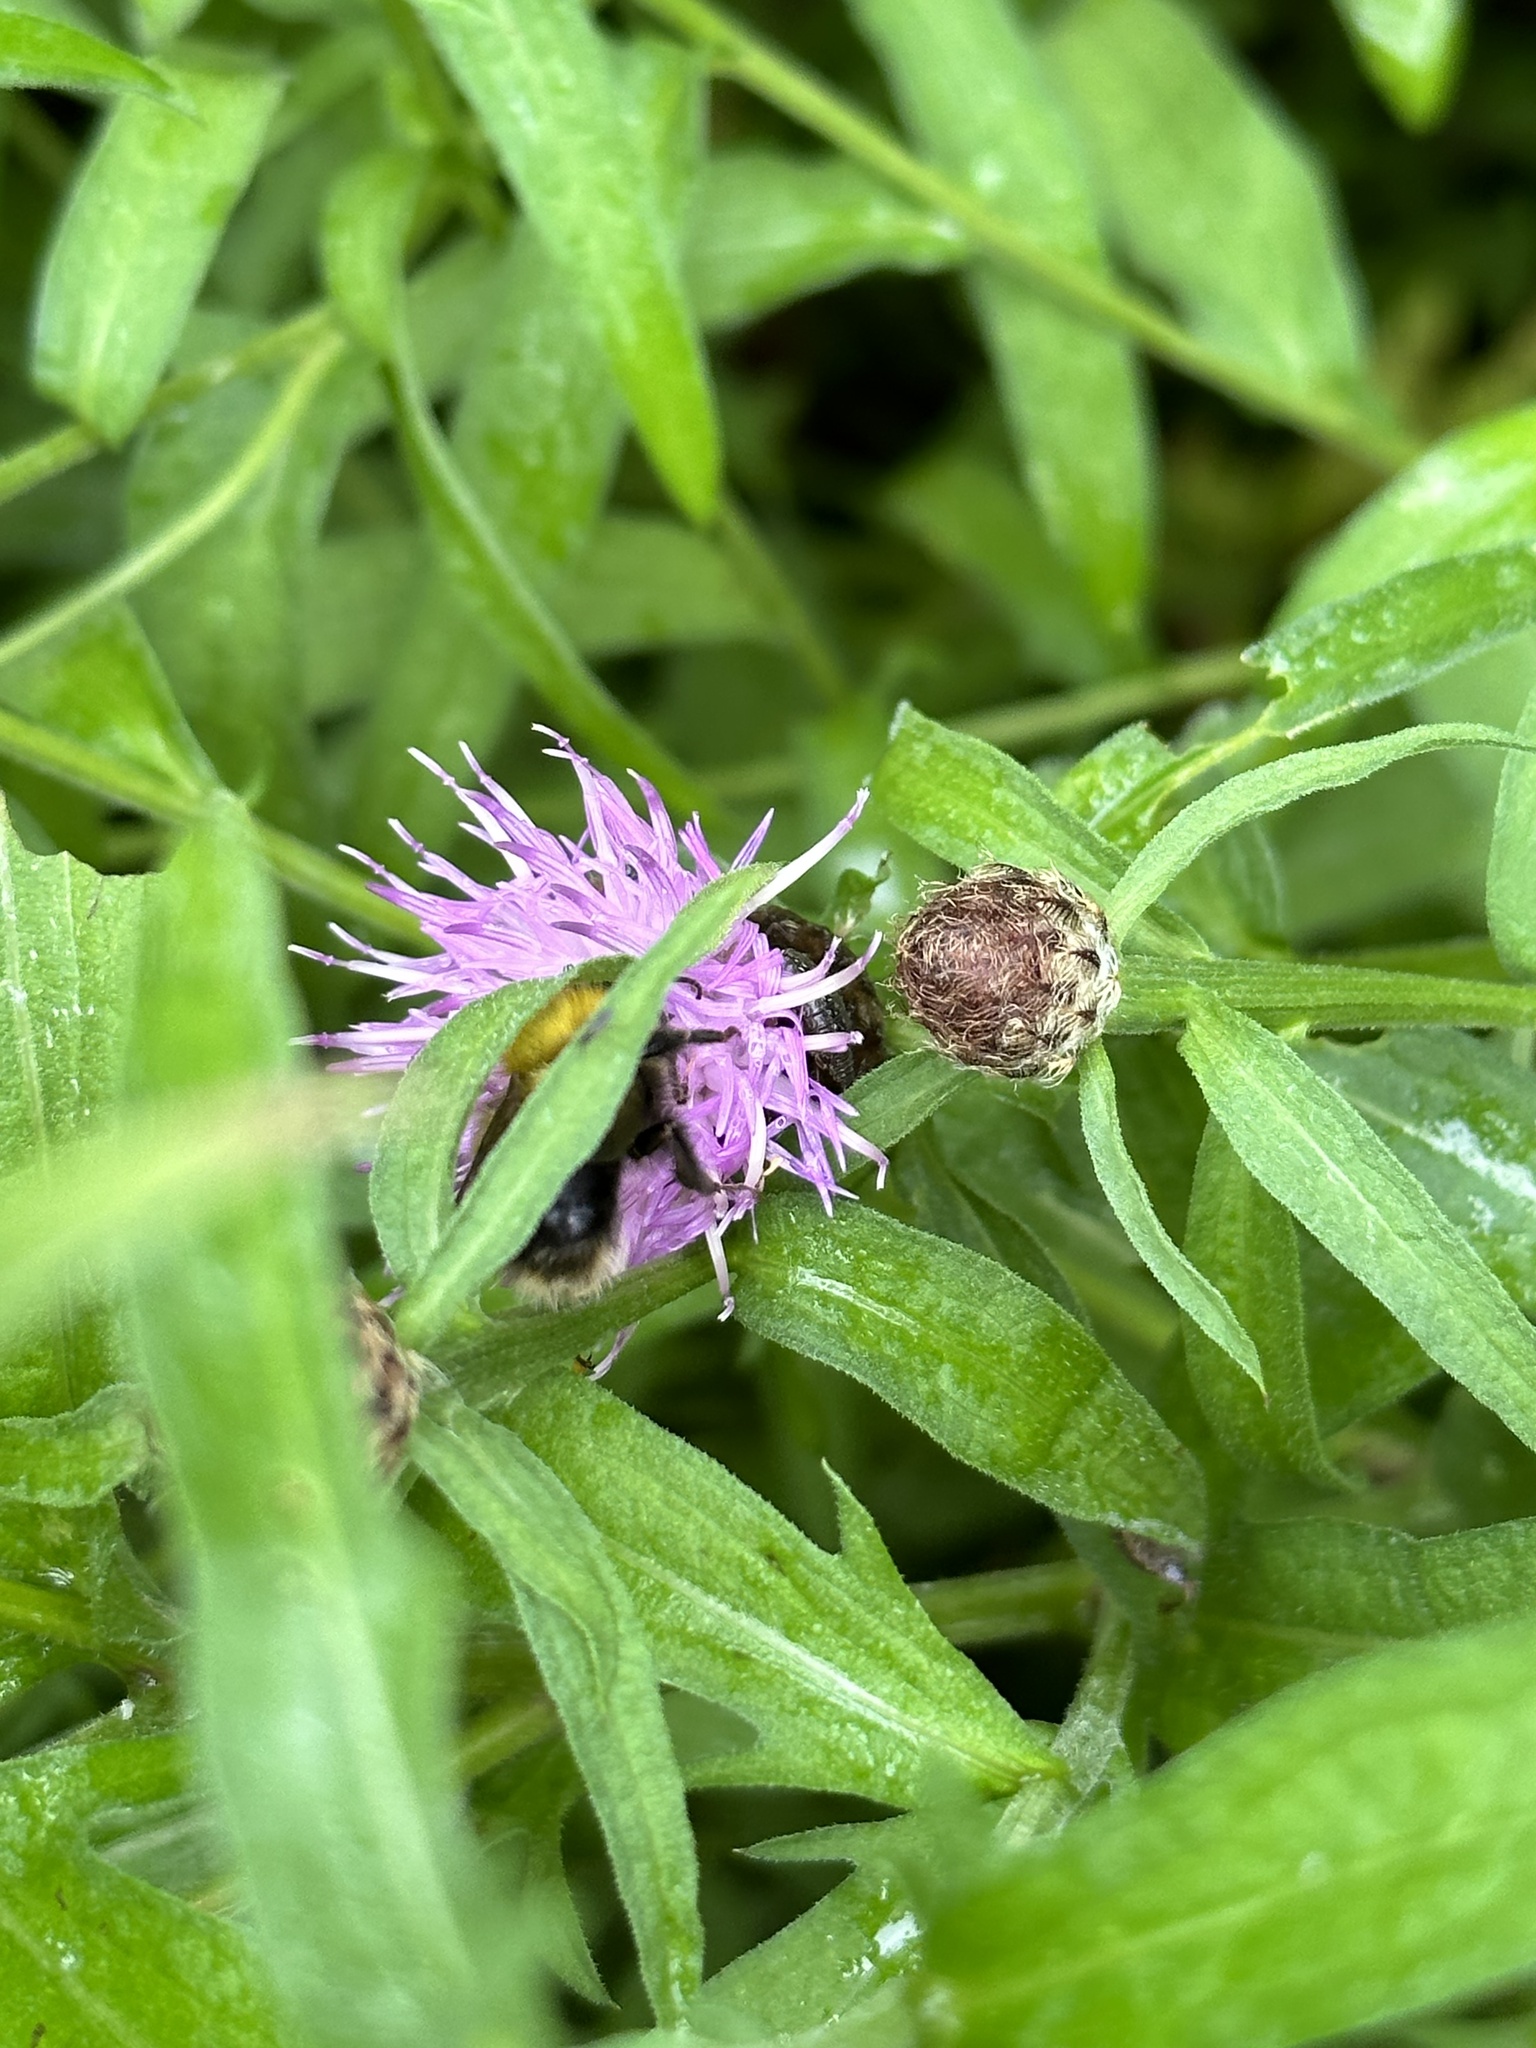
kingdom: Animalia
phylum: Arthropoda
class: Insecta
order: Hymenoptera
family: Apidae
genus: Bombus
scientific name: Bombus perplexus
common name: Confusing bumble bee
